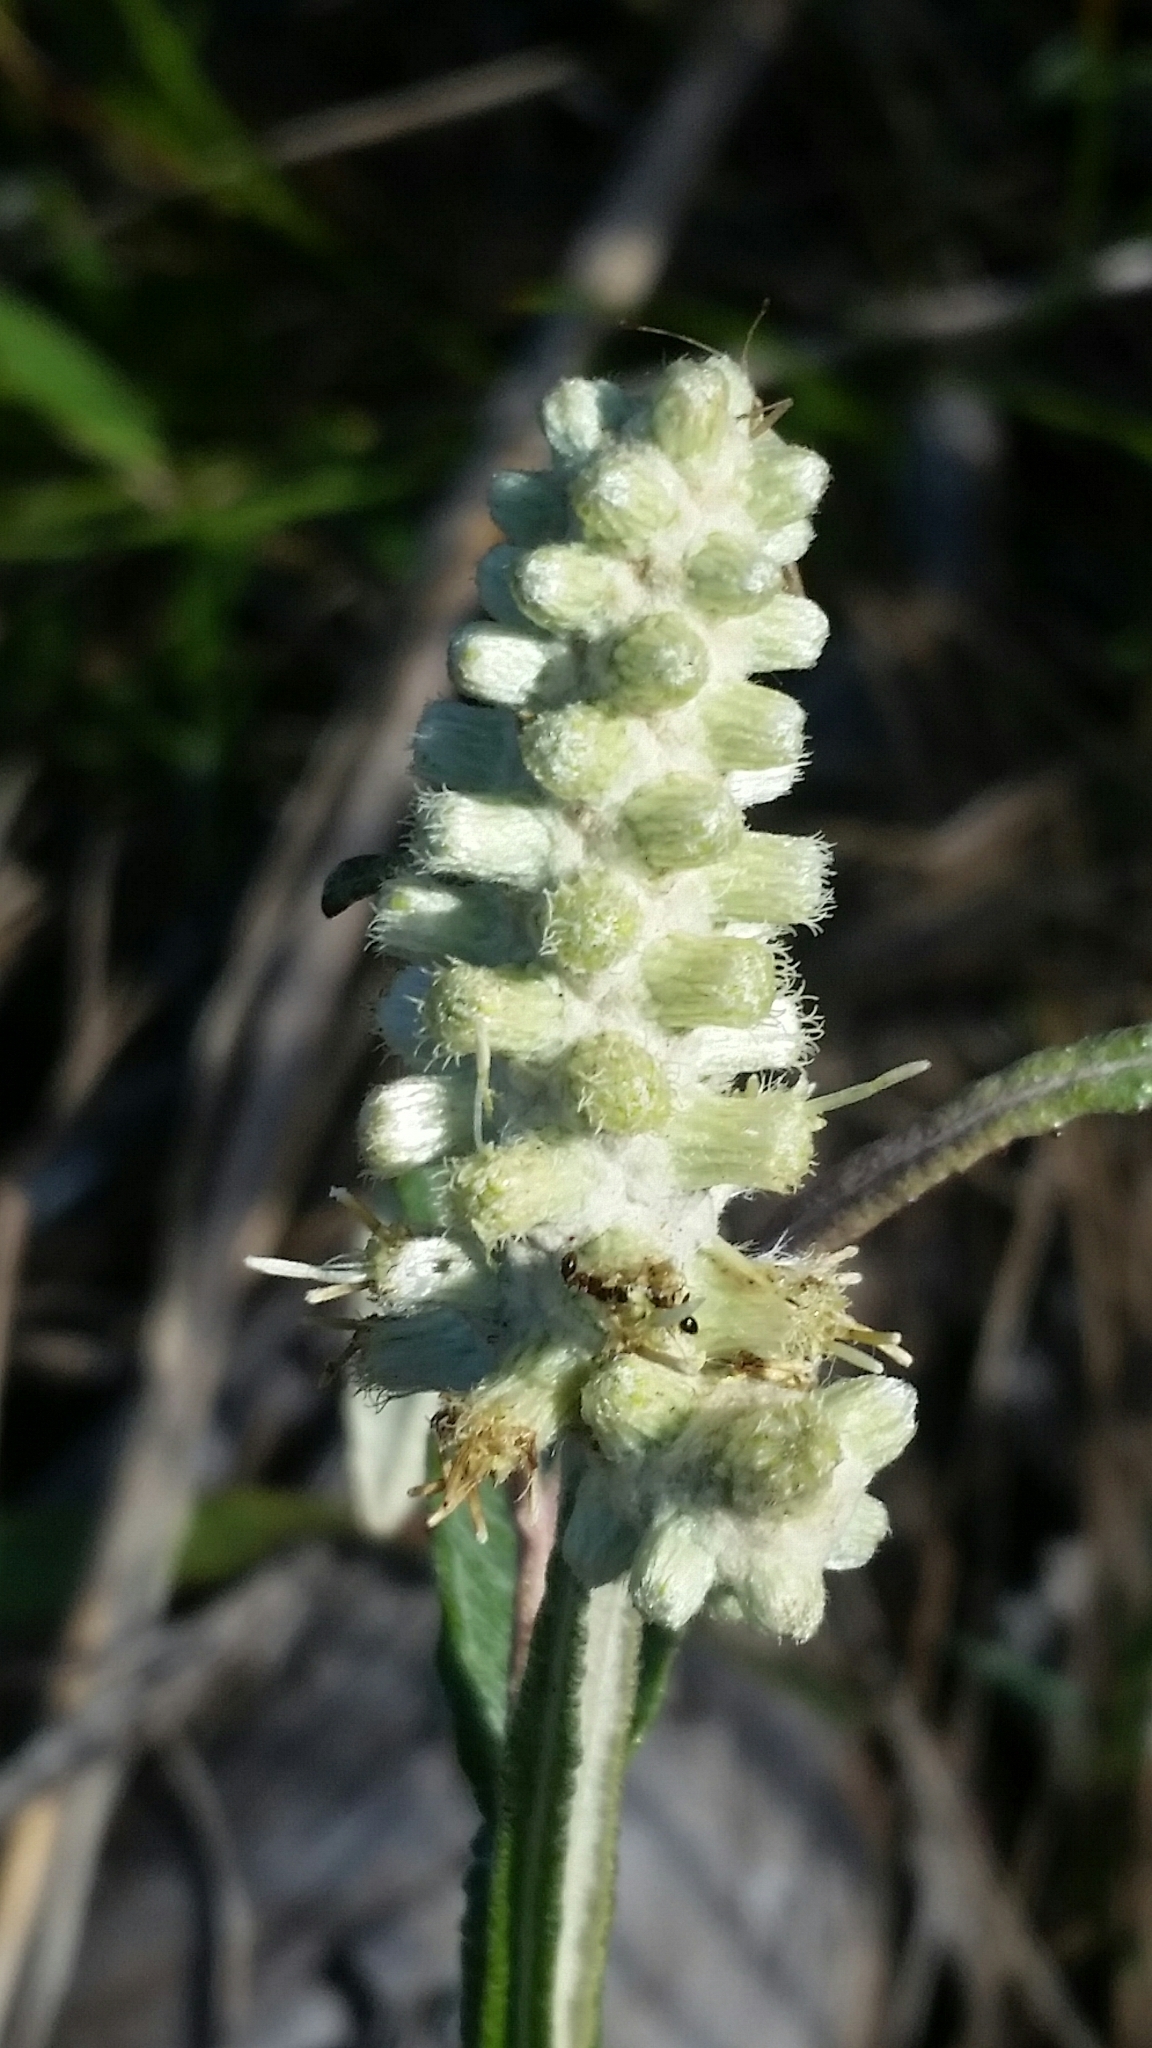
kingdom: Plantae
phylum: Tracheophyta
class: Magnoliopsida
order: Asterales
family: Asteraceae
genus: Pterocaulon
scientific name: Pterocaulon pycnostachyum
